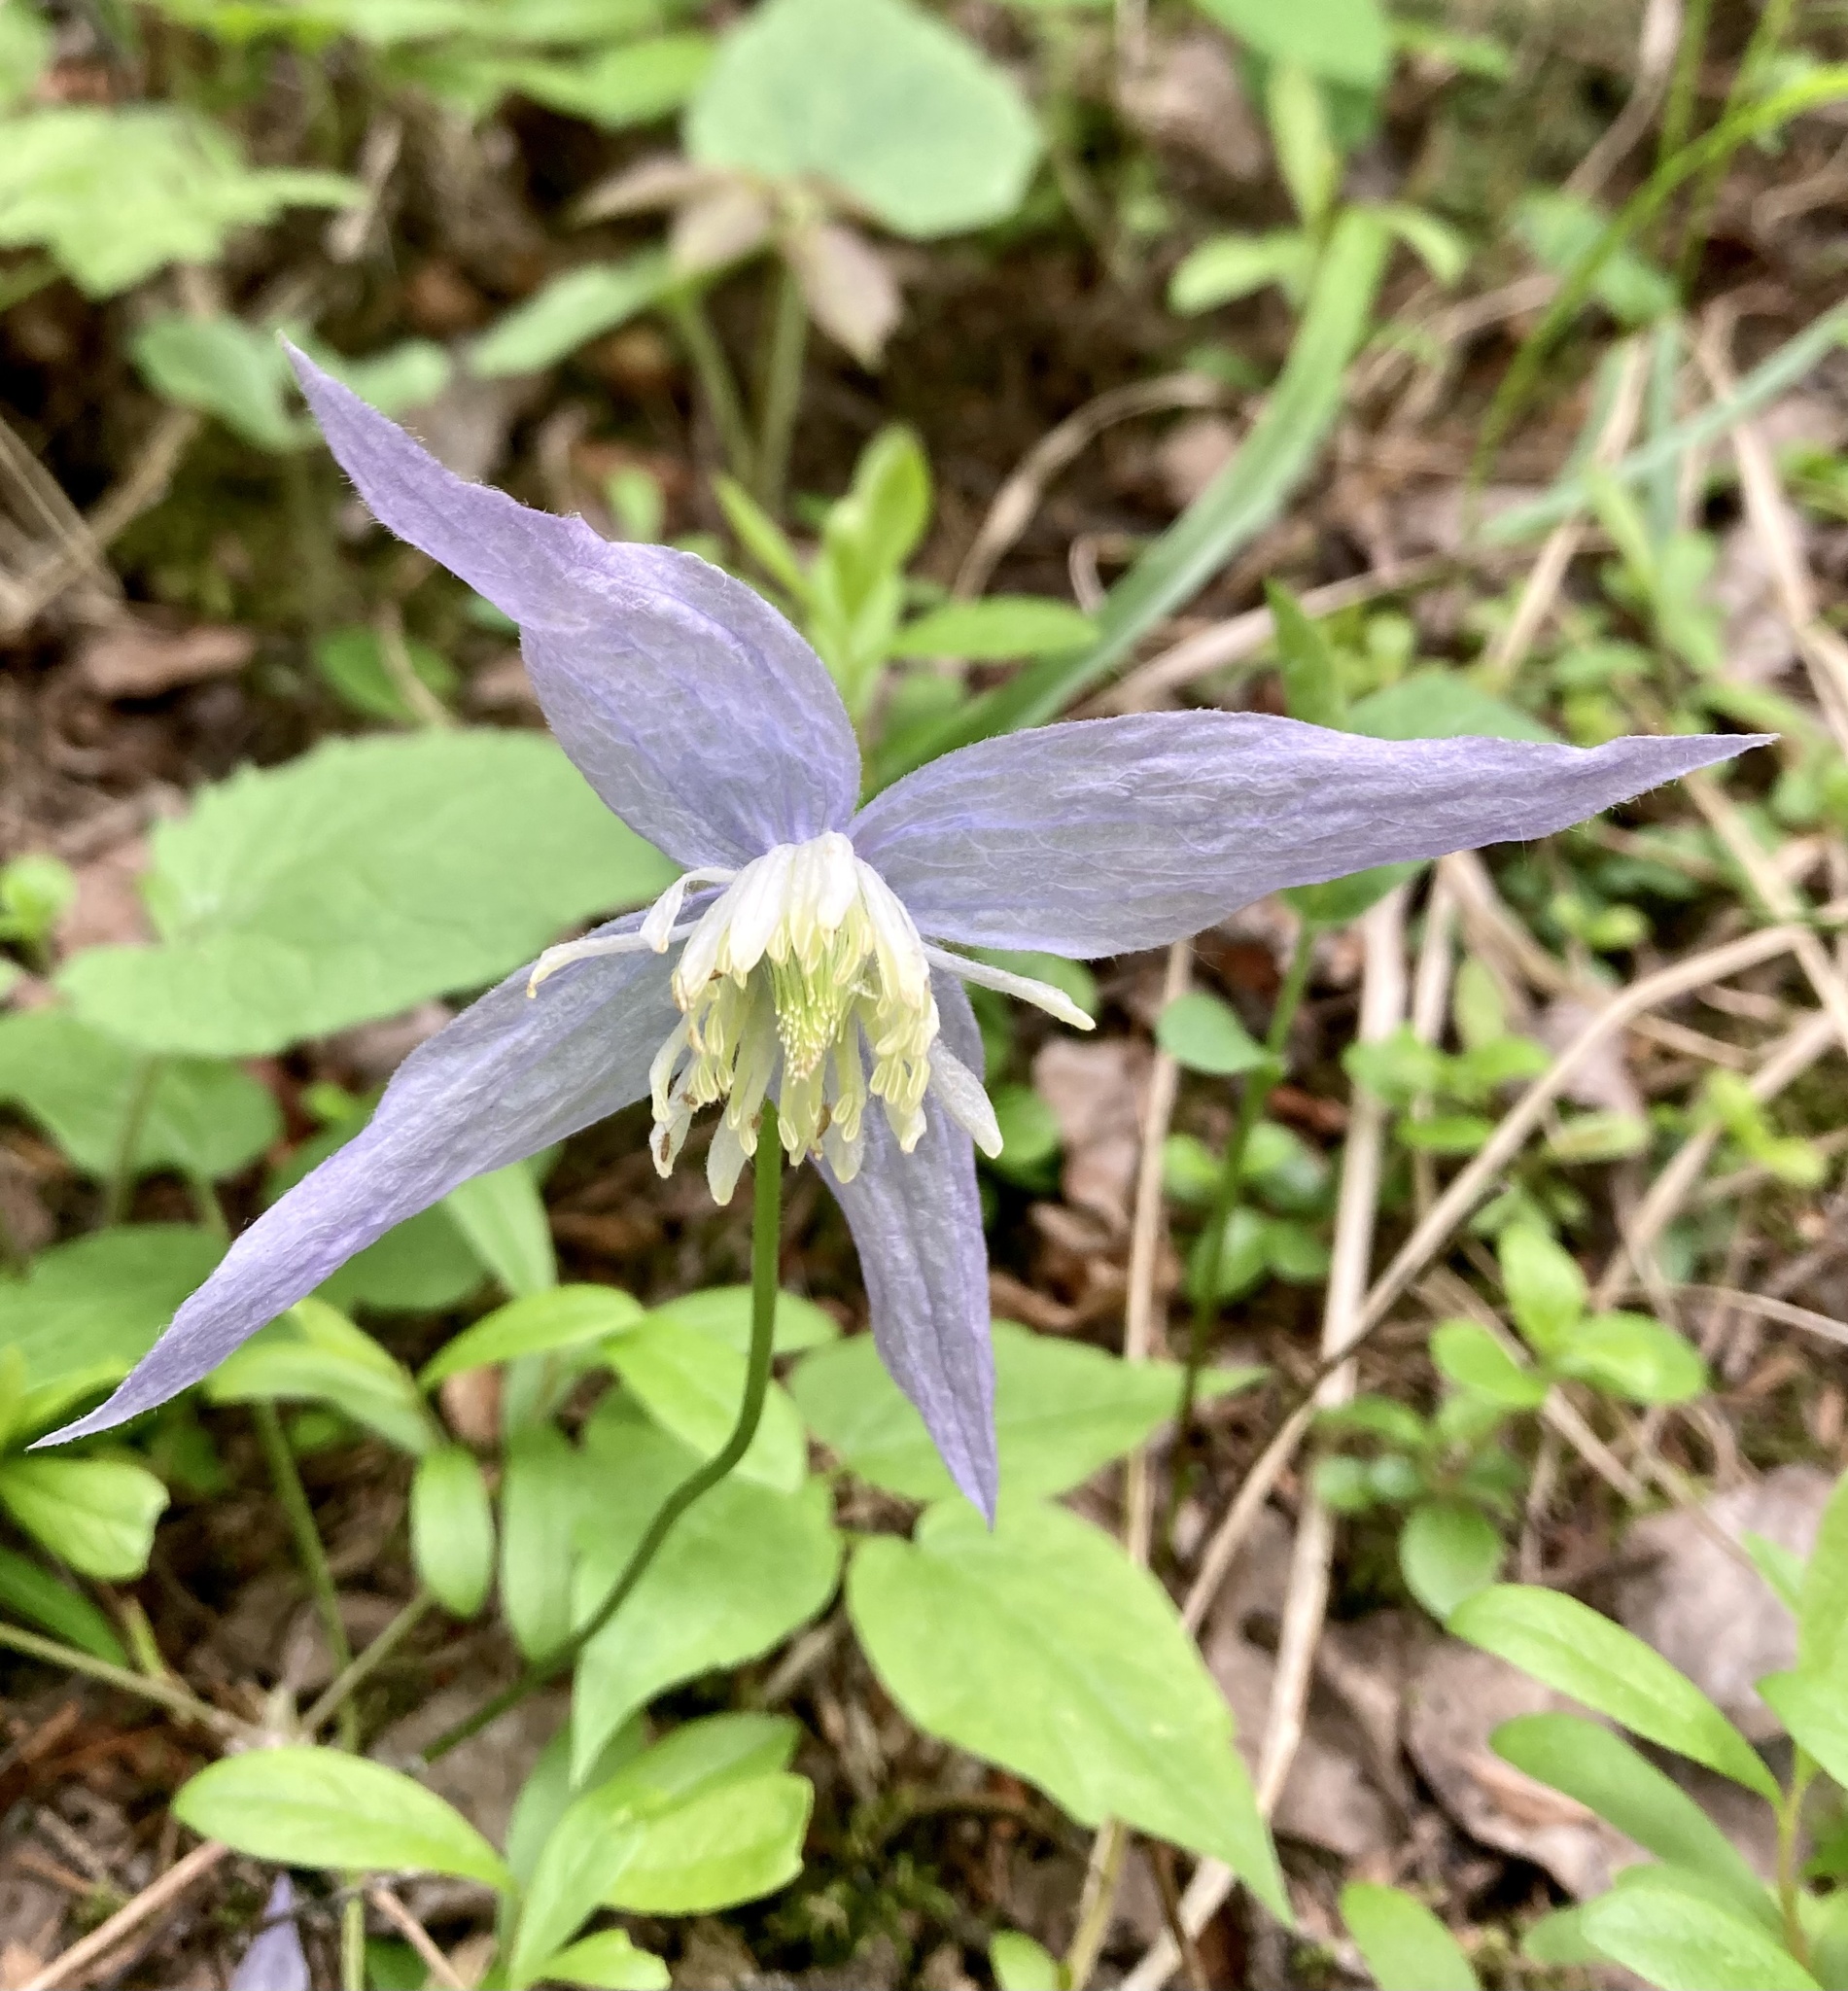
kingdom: Plantae
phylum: Tracheophyta
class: Magnoliopsida
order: Ranunculales
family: Ranunculaceae
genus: Clematis
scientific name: Clematis occidentalis
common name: Purple clematis
